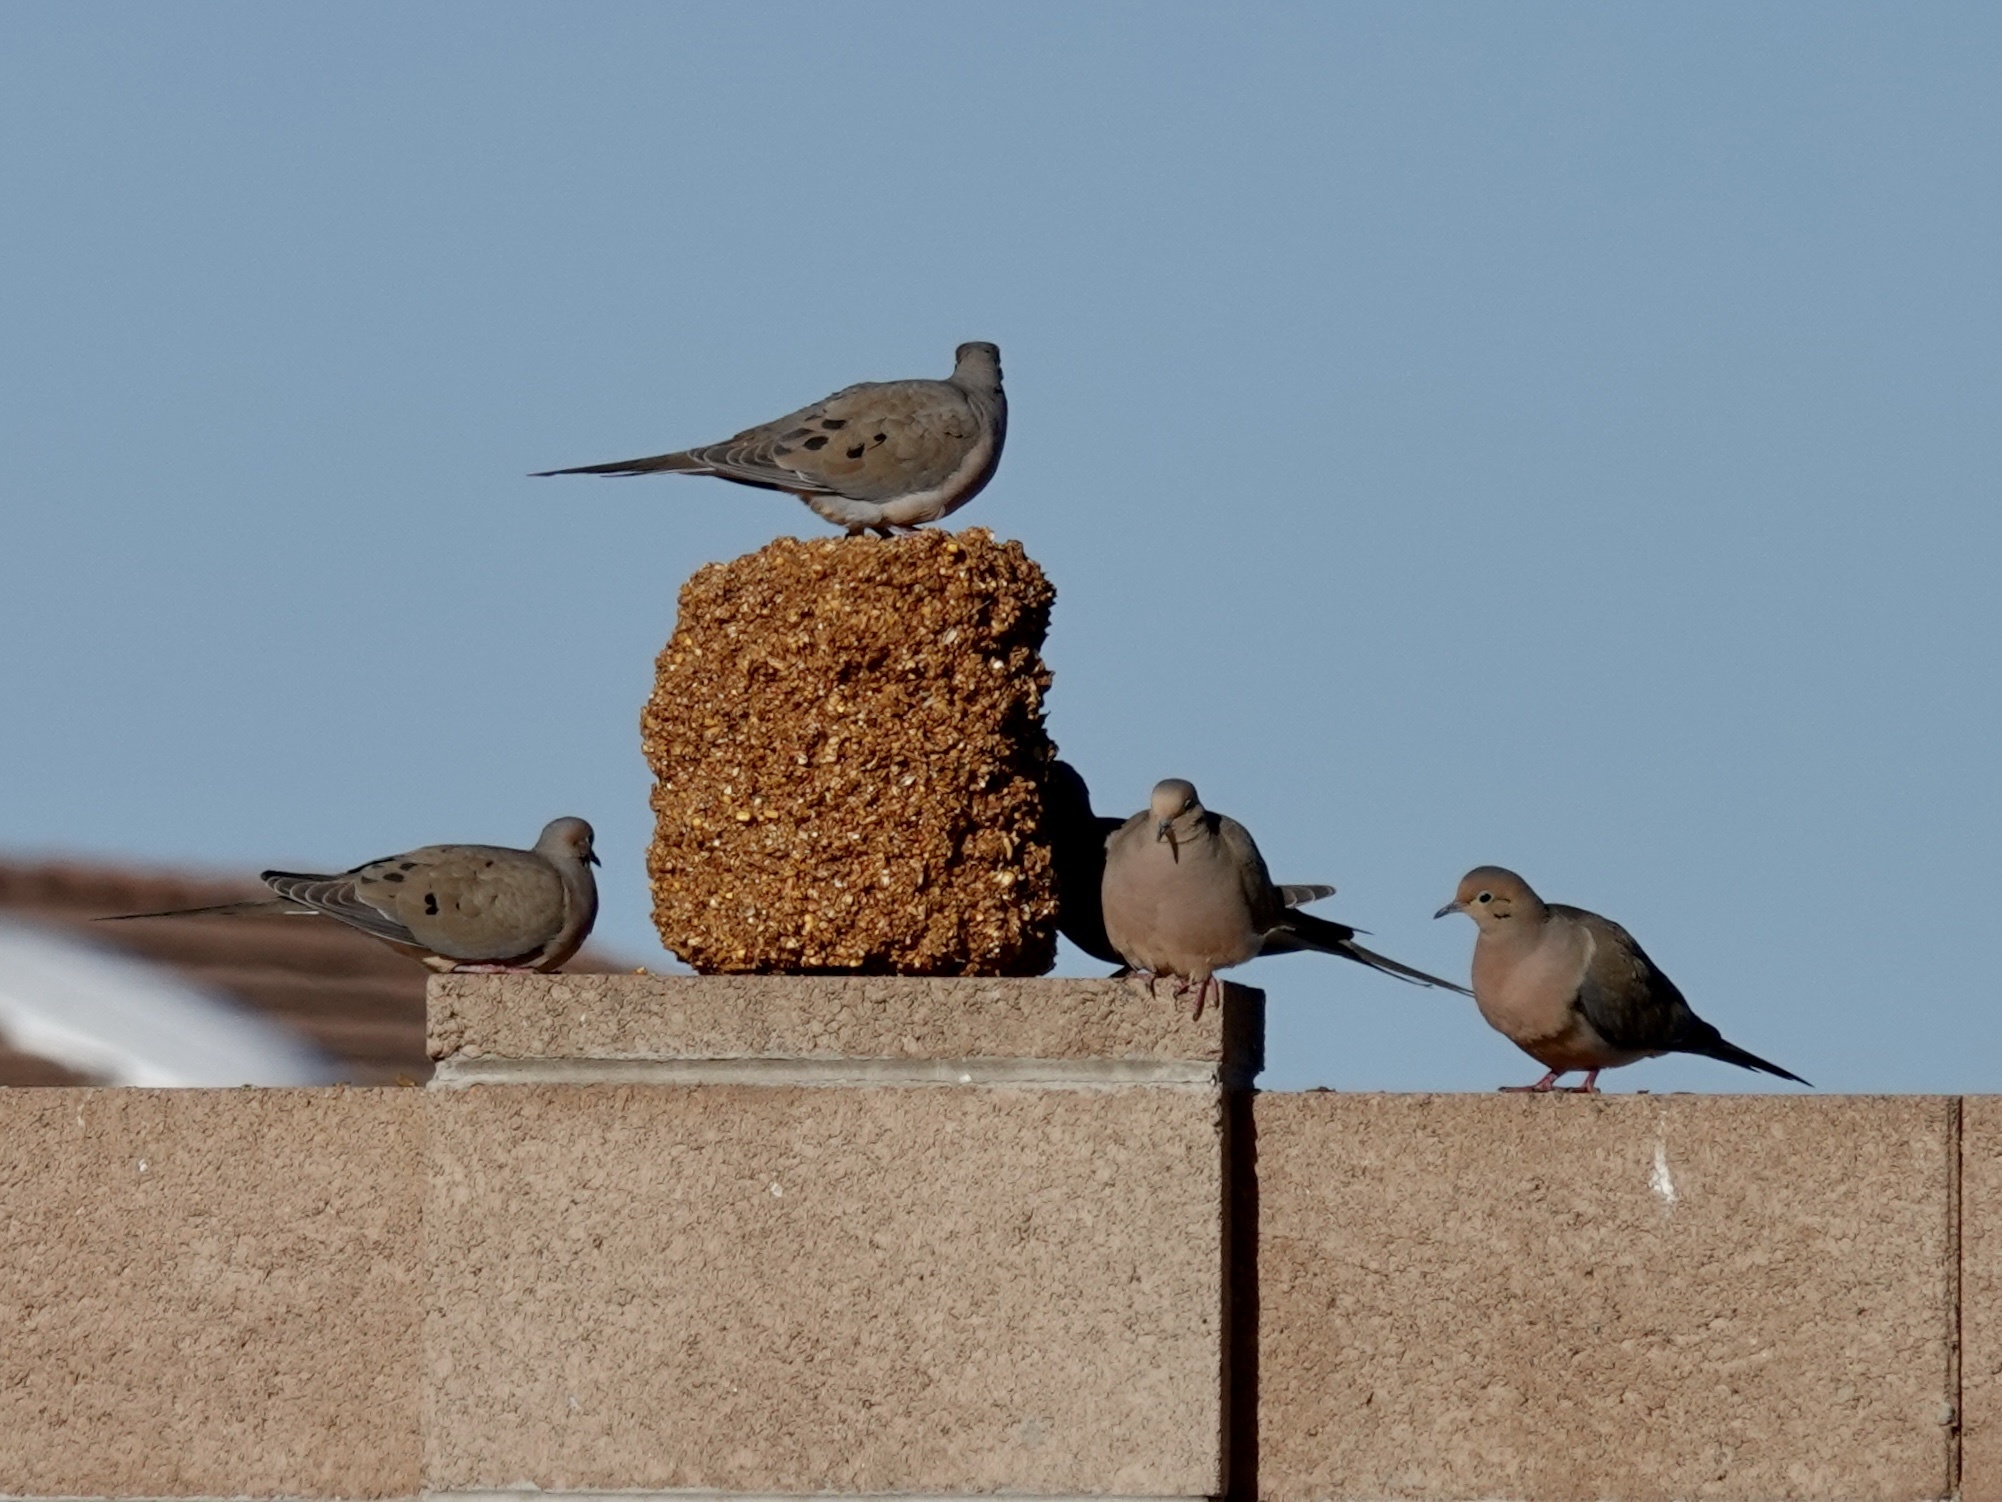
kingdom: Animalia
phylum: Chordata
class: Aves
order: Columbiformes
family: Columbidae
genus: Zenaida
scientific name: Zenaida macroura
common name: Mourning dove
